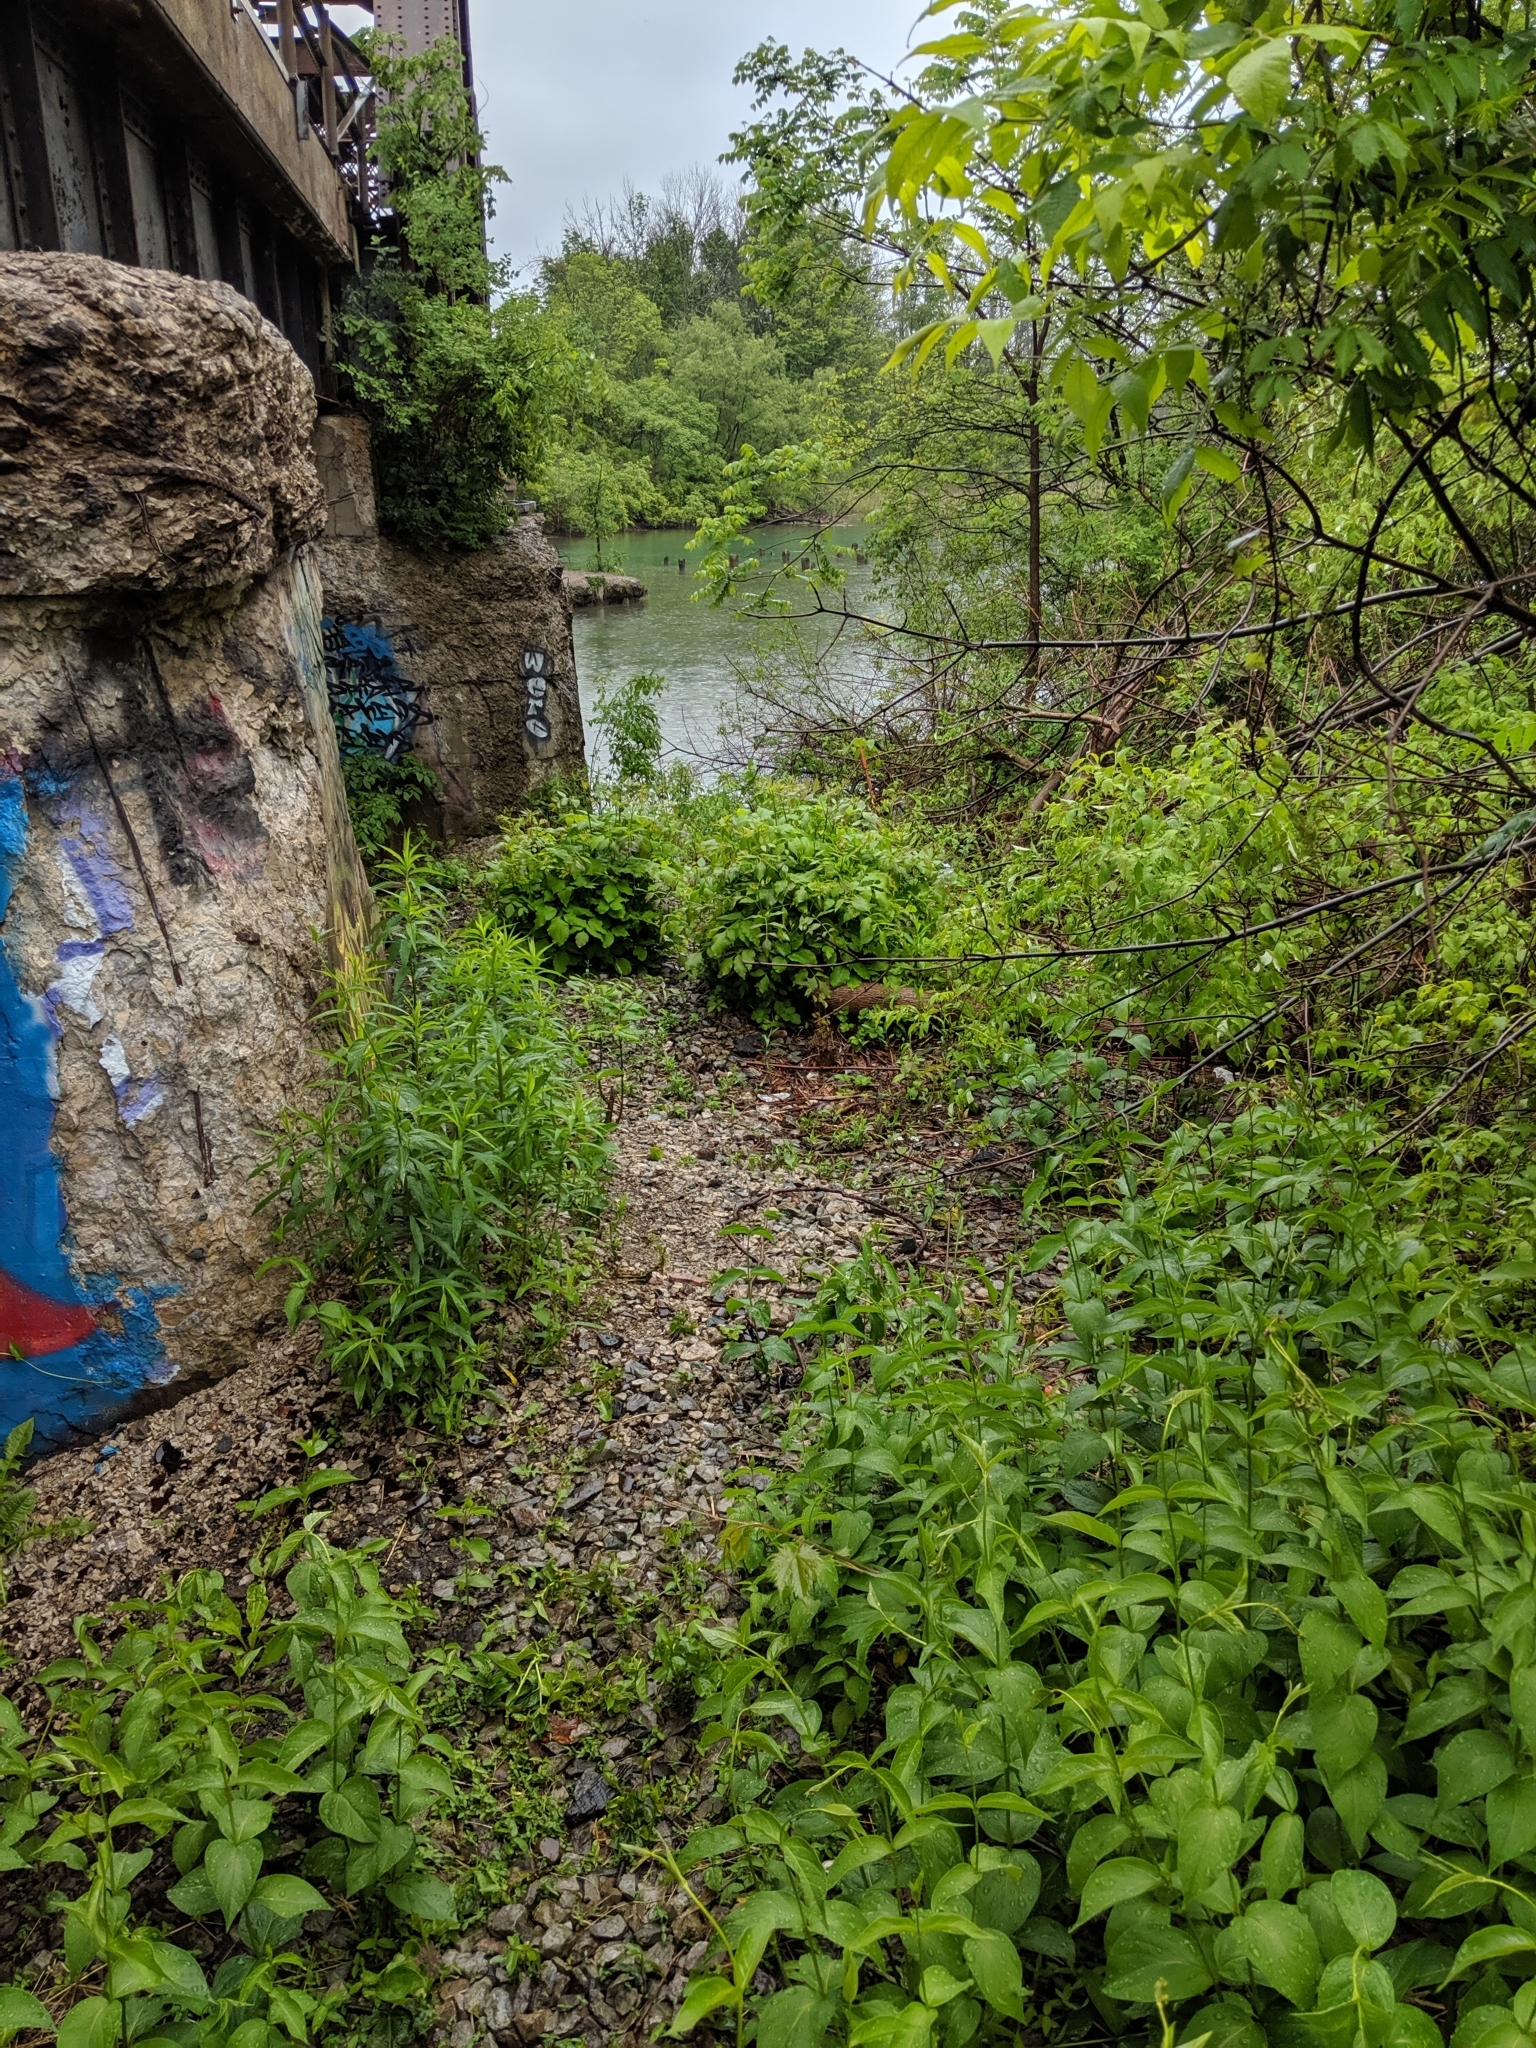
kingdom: Plantae
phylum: Tracheophyta
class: Magnoliopsida
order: Gentianales
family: Apocynaceae
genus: Vincetoxicum
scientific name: Vincetoxicum rossicum
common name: Dog-strangling vine
